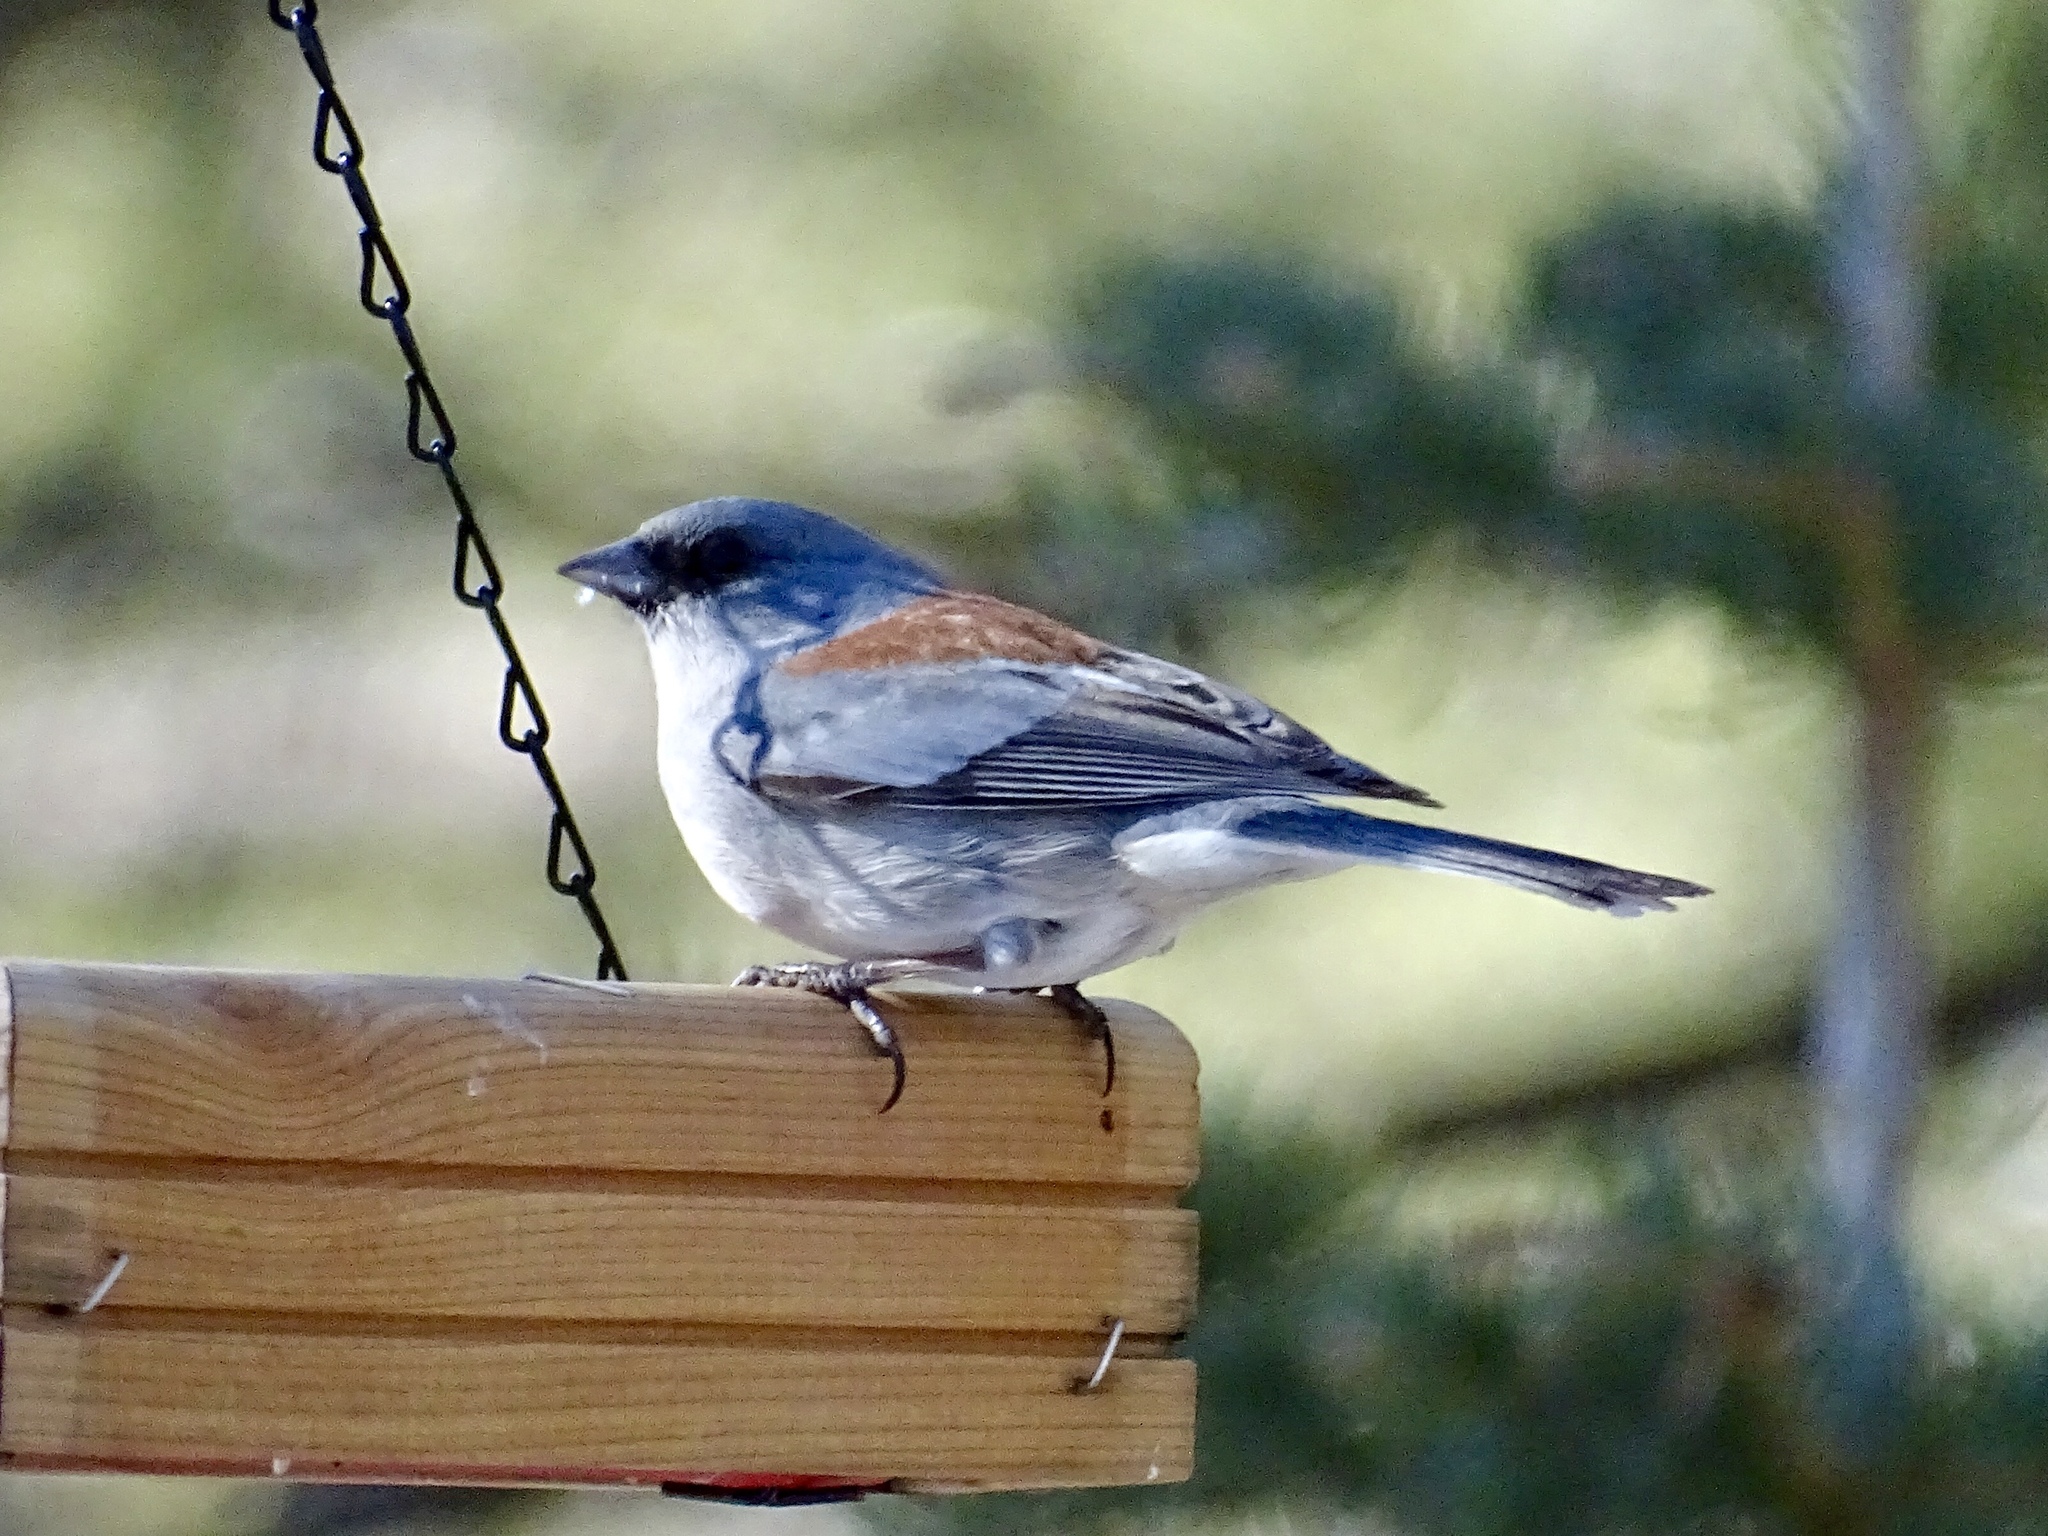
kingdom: Animalia
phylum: Chordata
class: Aves
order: Passeriformes
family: Passerellidae
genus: Junco
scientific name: Junco hyemalis
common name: Dark-eyed junco
